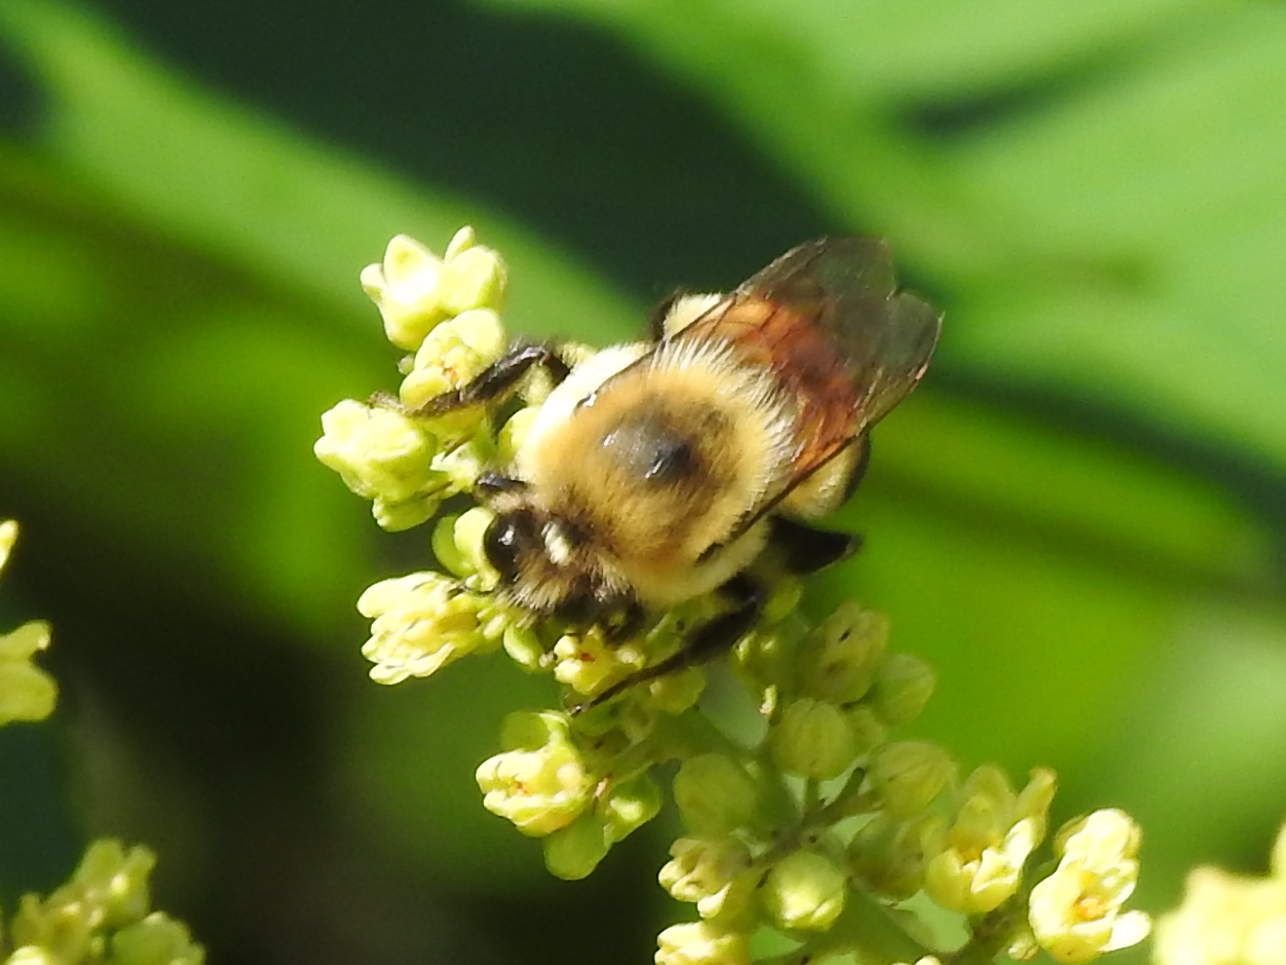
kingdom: Animalia
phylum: Arthropoda
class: Insecta
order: Hymenoptera
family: Apidae
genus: Bombus
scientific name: Bombus griseocollis
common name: Brown-belted bumble bee
